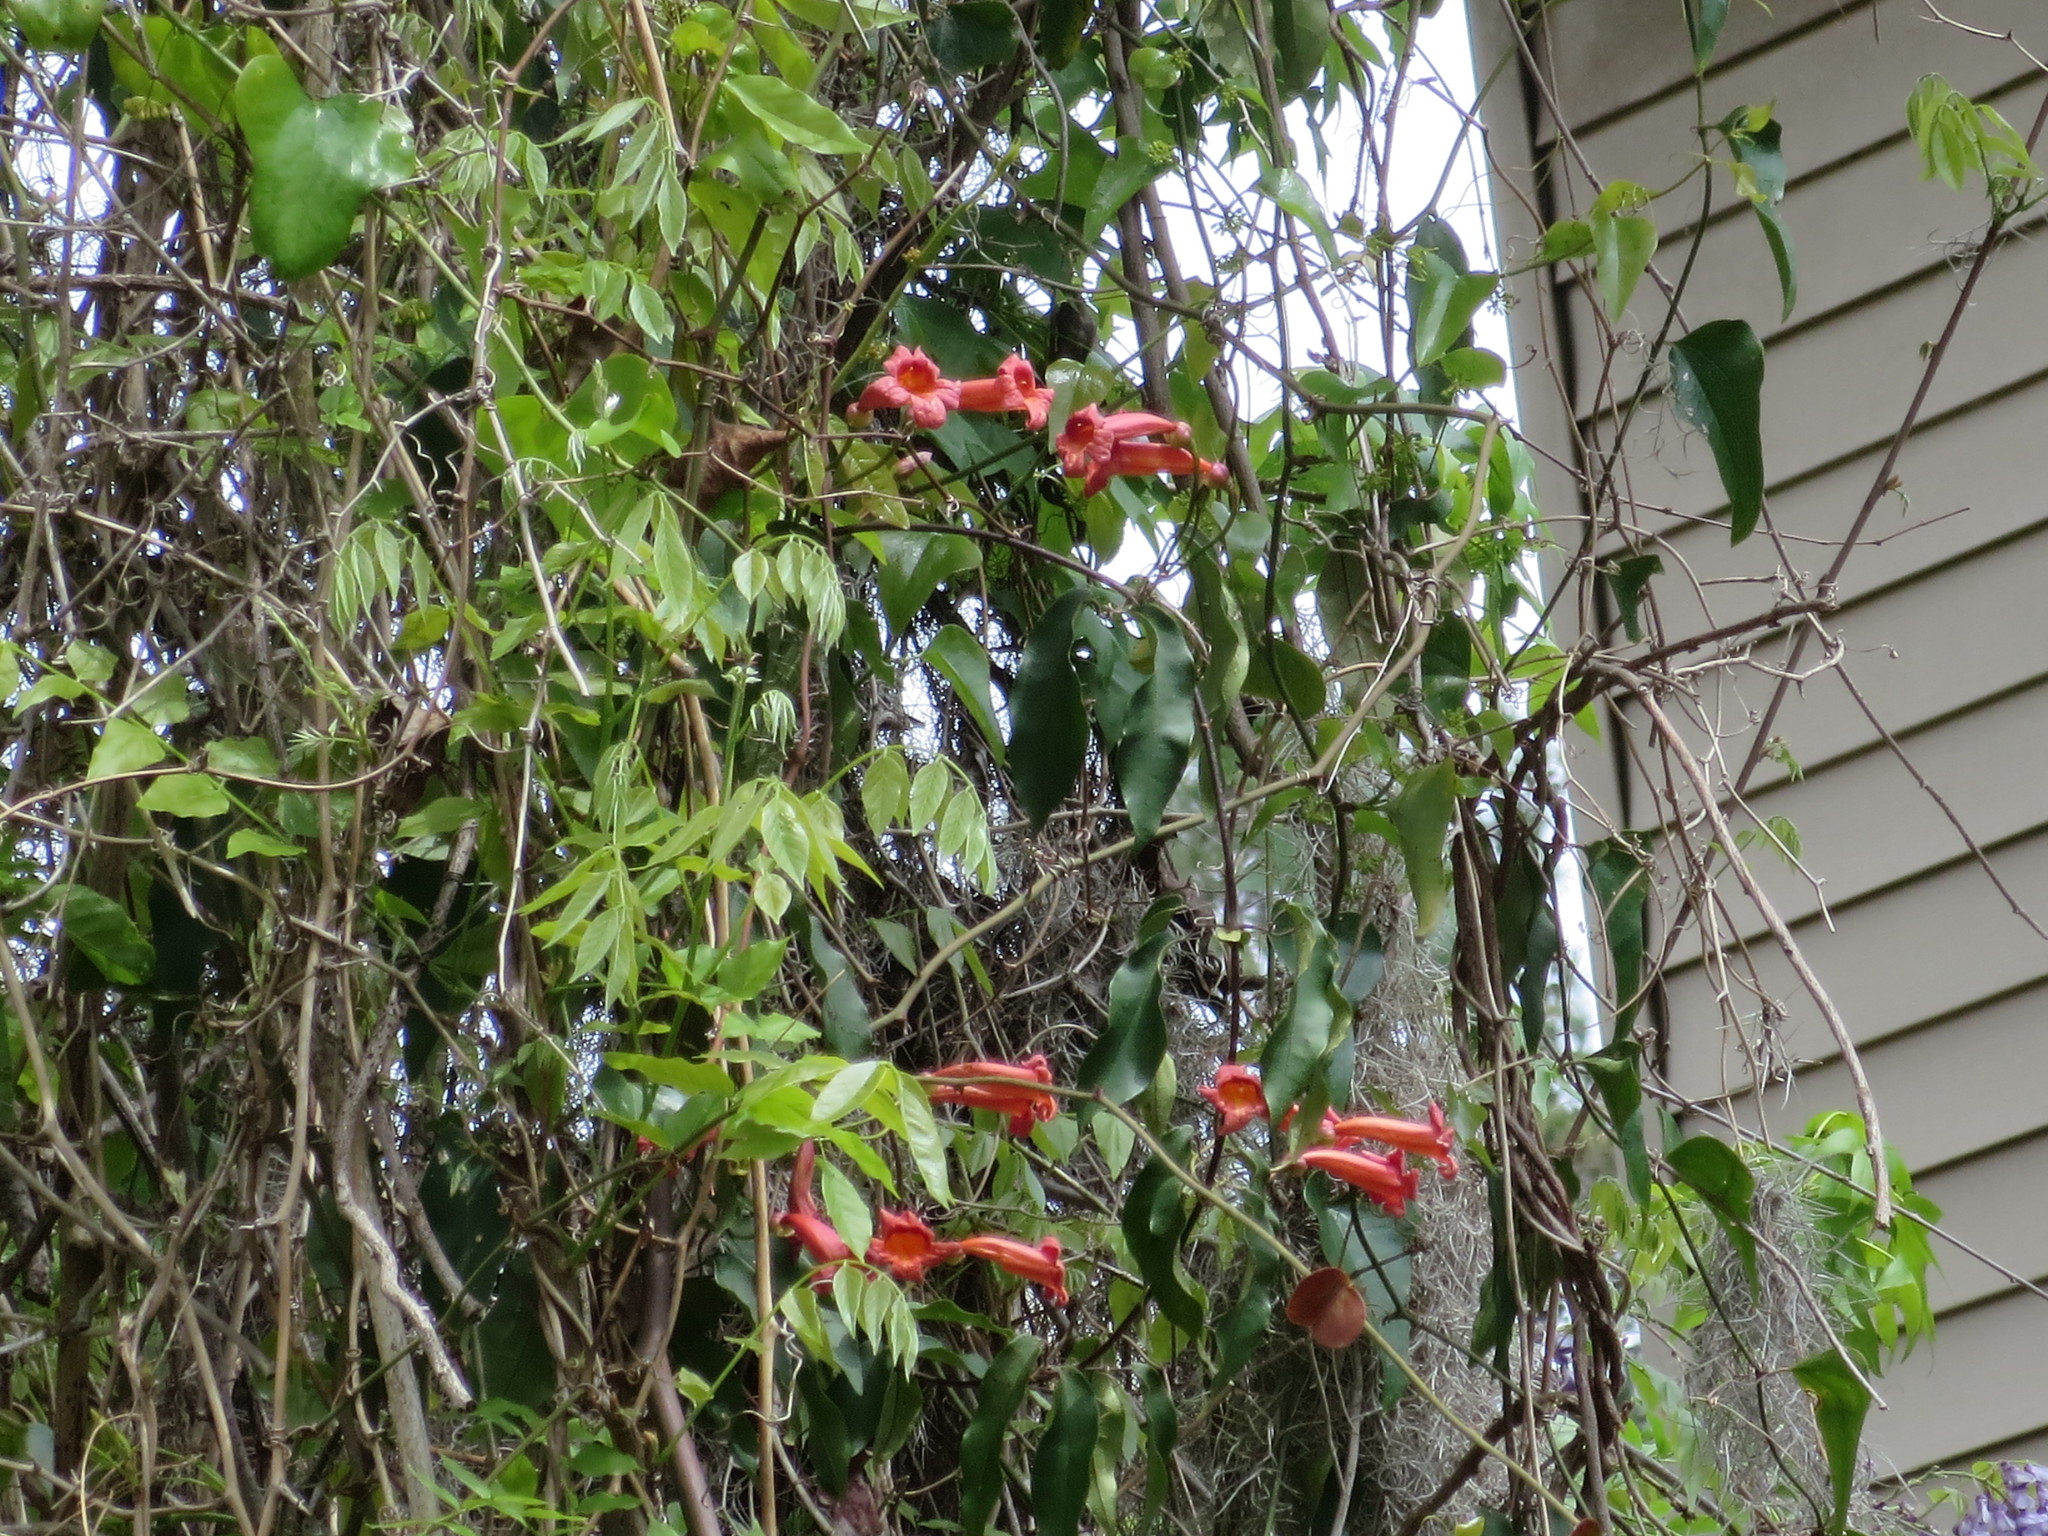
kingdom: Plantae
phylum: Tracheophyta
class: Magnoliopsida
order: Lamiales
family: Bignoniaceae
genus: Bignonia
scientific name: Bignonia capreolata
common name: Crossvine
